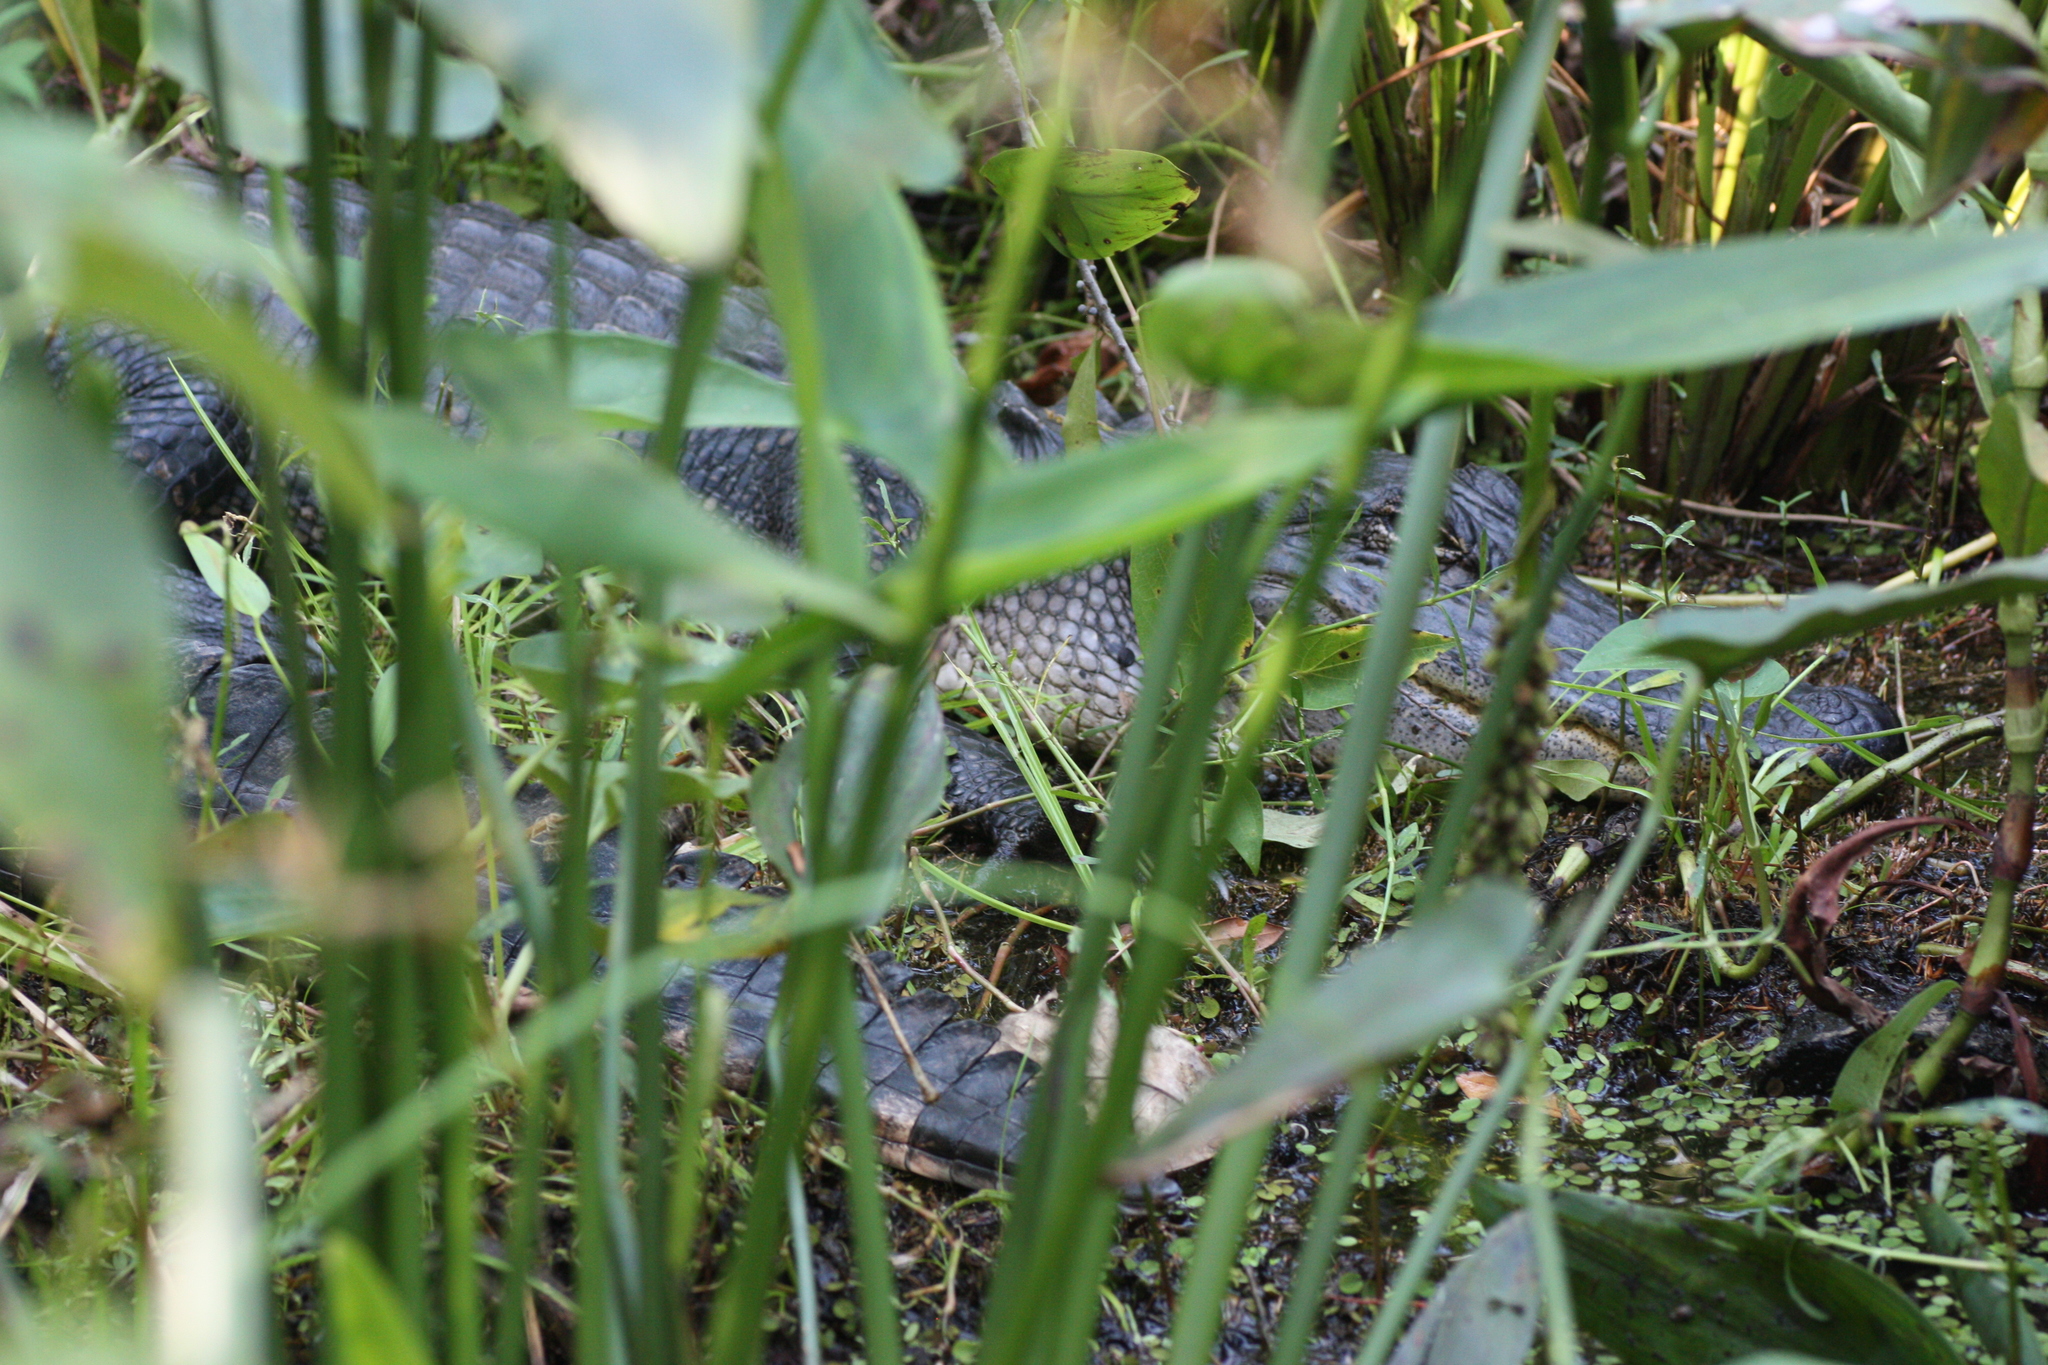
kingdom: Animalia
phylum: Chordata
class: Crocodylia
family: Alligatoridae
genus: Alligator
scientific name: Alligator mississippiensis
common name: American alligator
